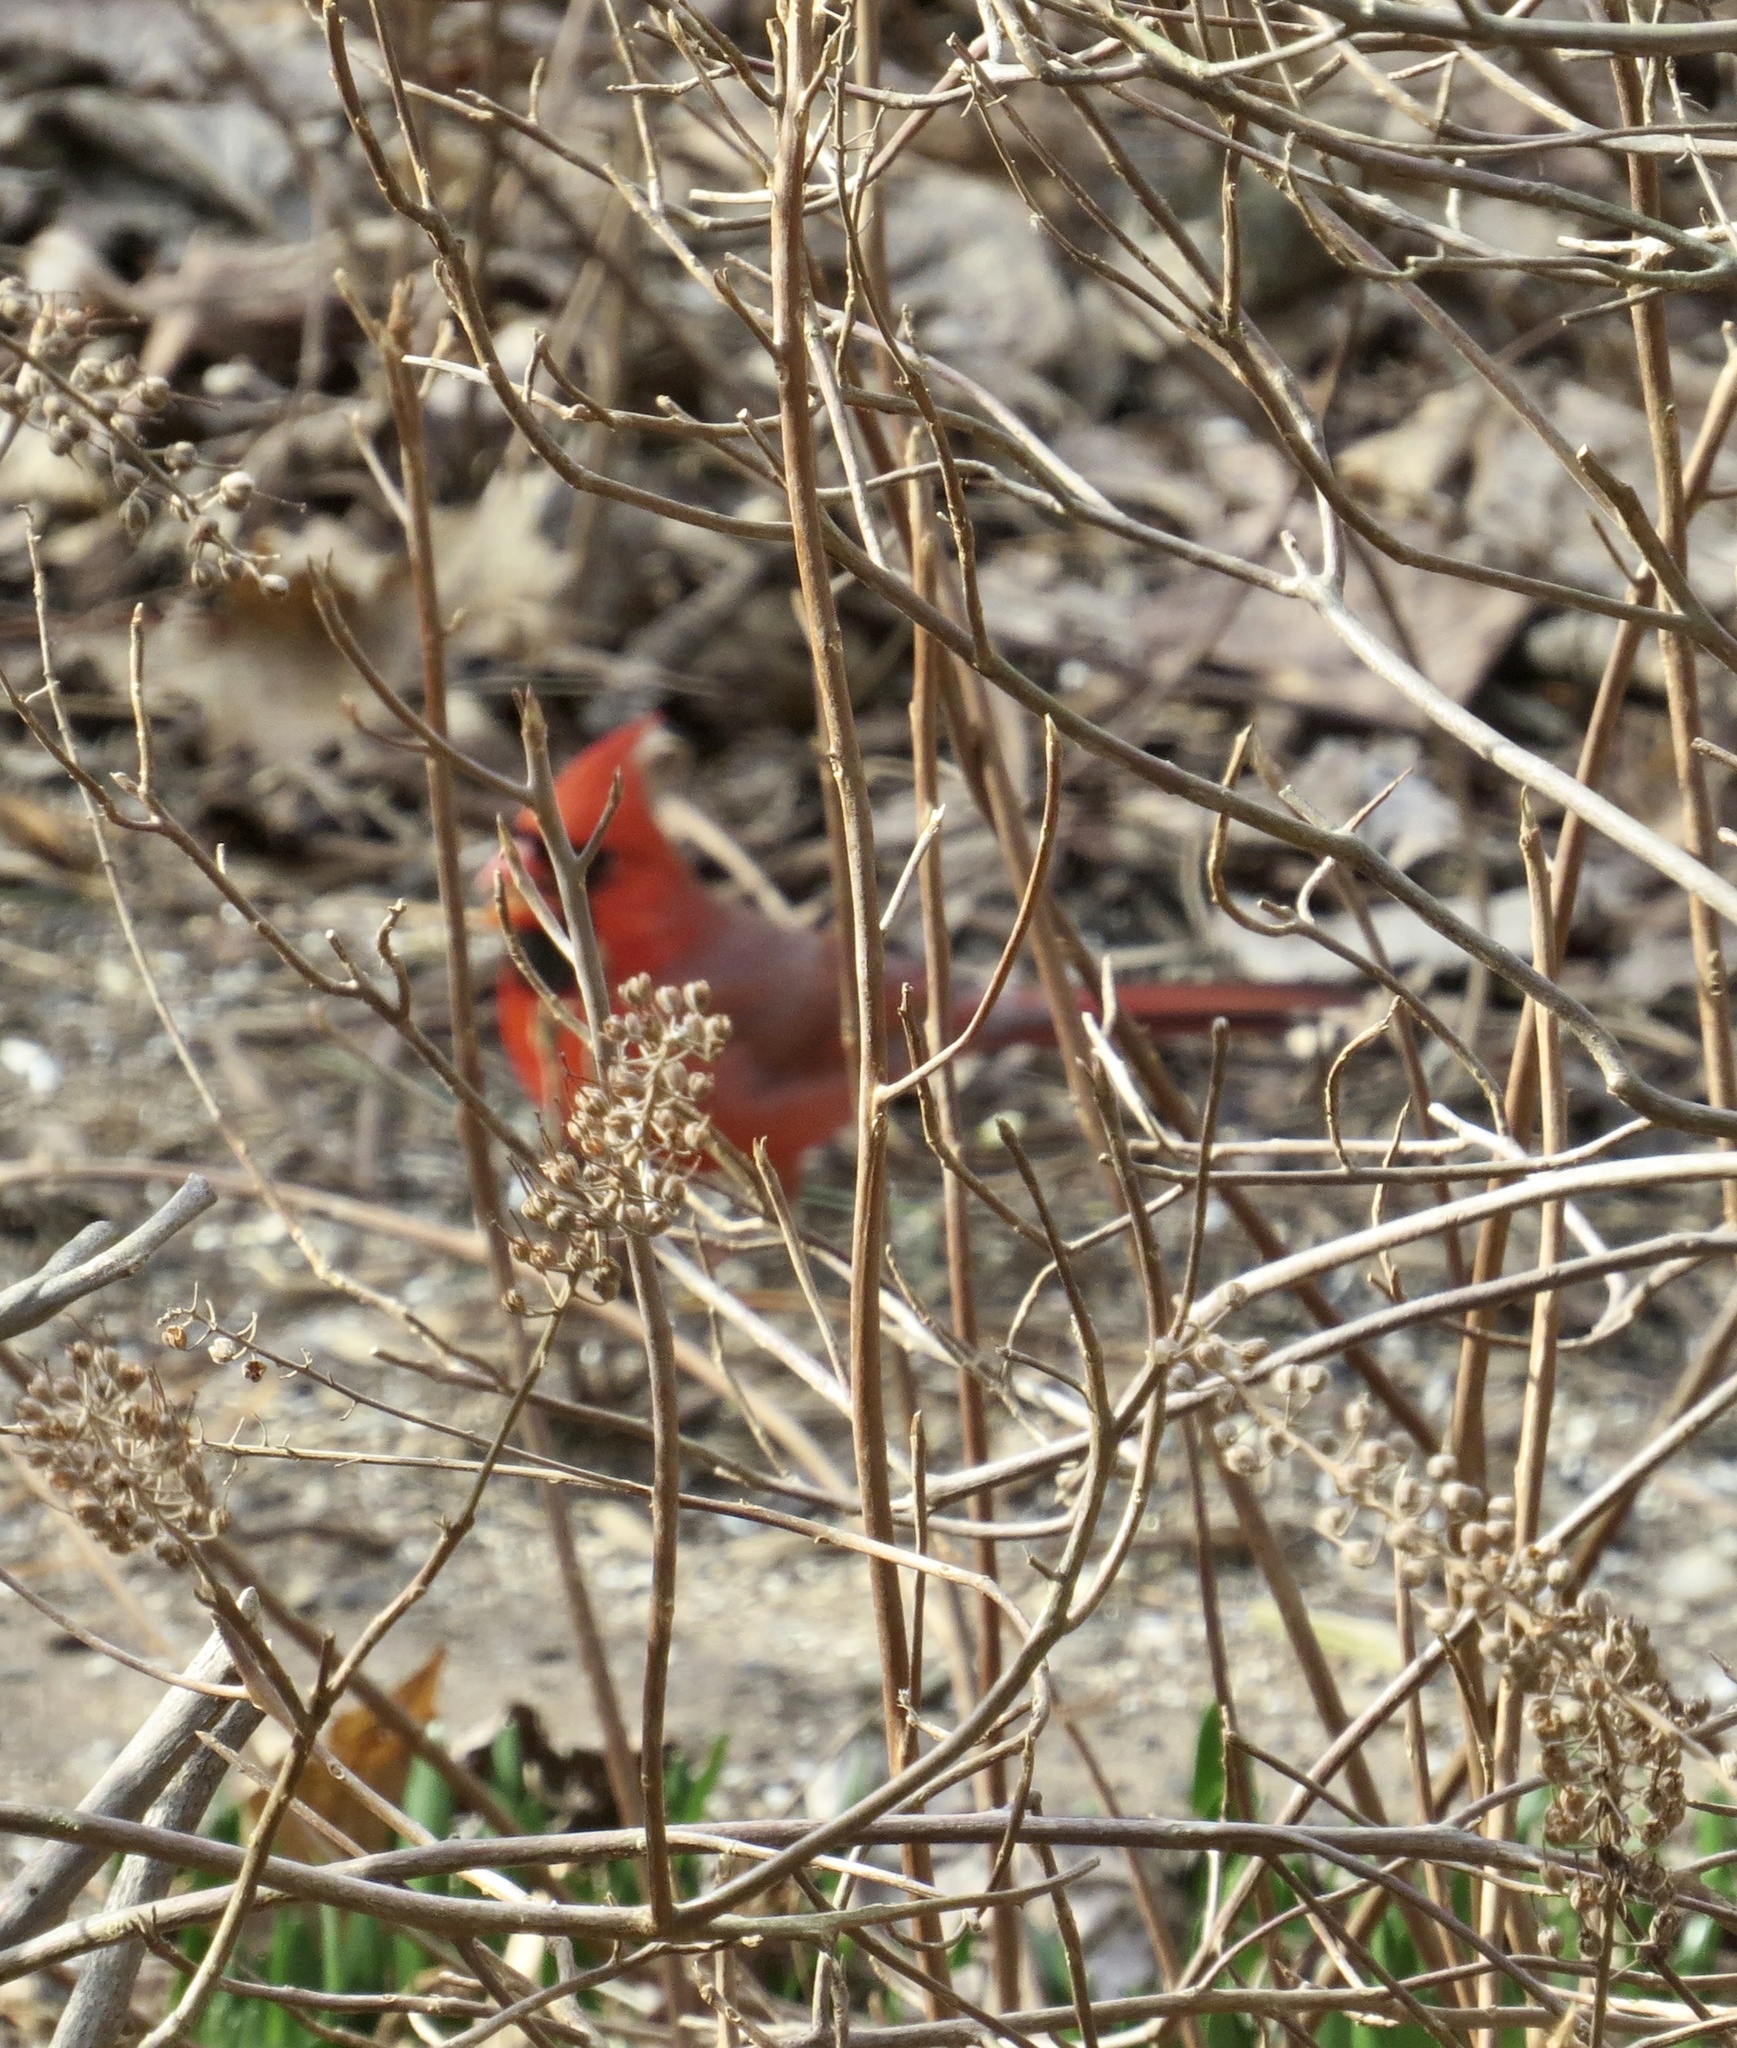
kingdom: Animalia
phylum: Chordata
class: Aves
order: Passeriformes
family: Cardinalidae
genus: Cardinalis
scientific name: Cardinalis cardinalis
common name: Northern cardinal
